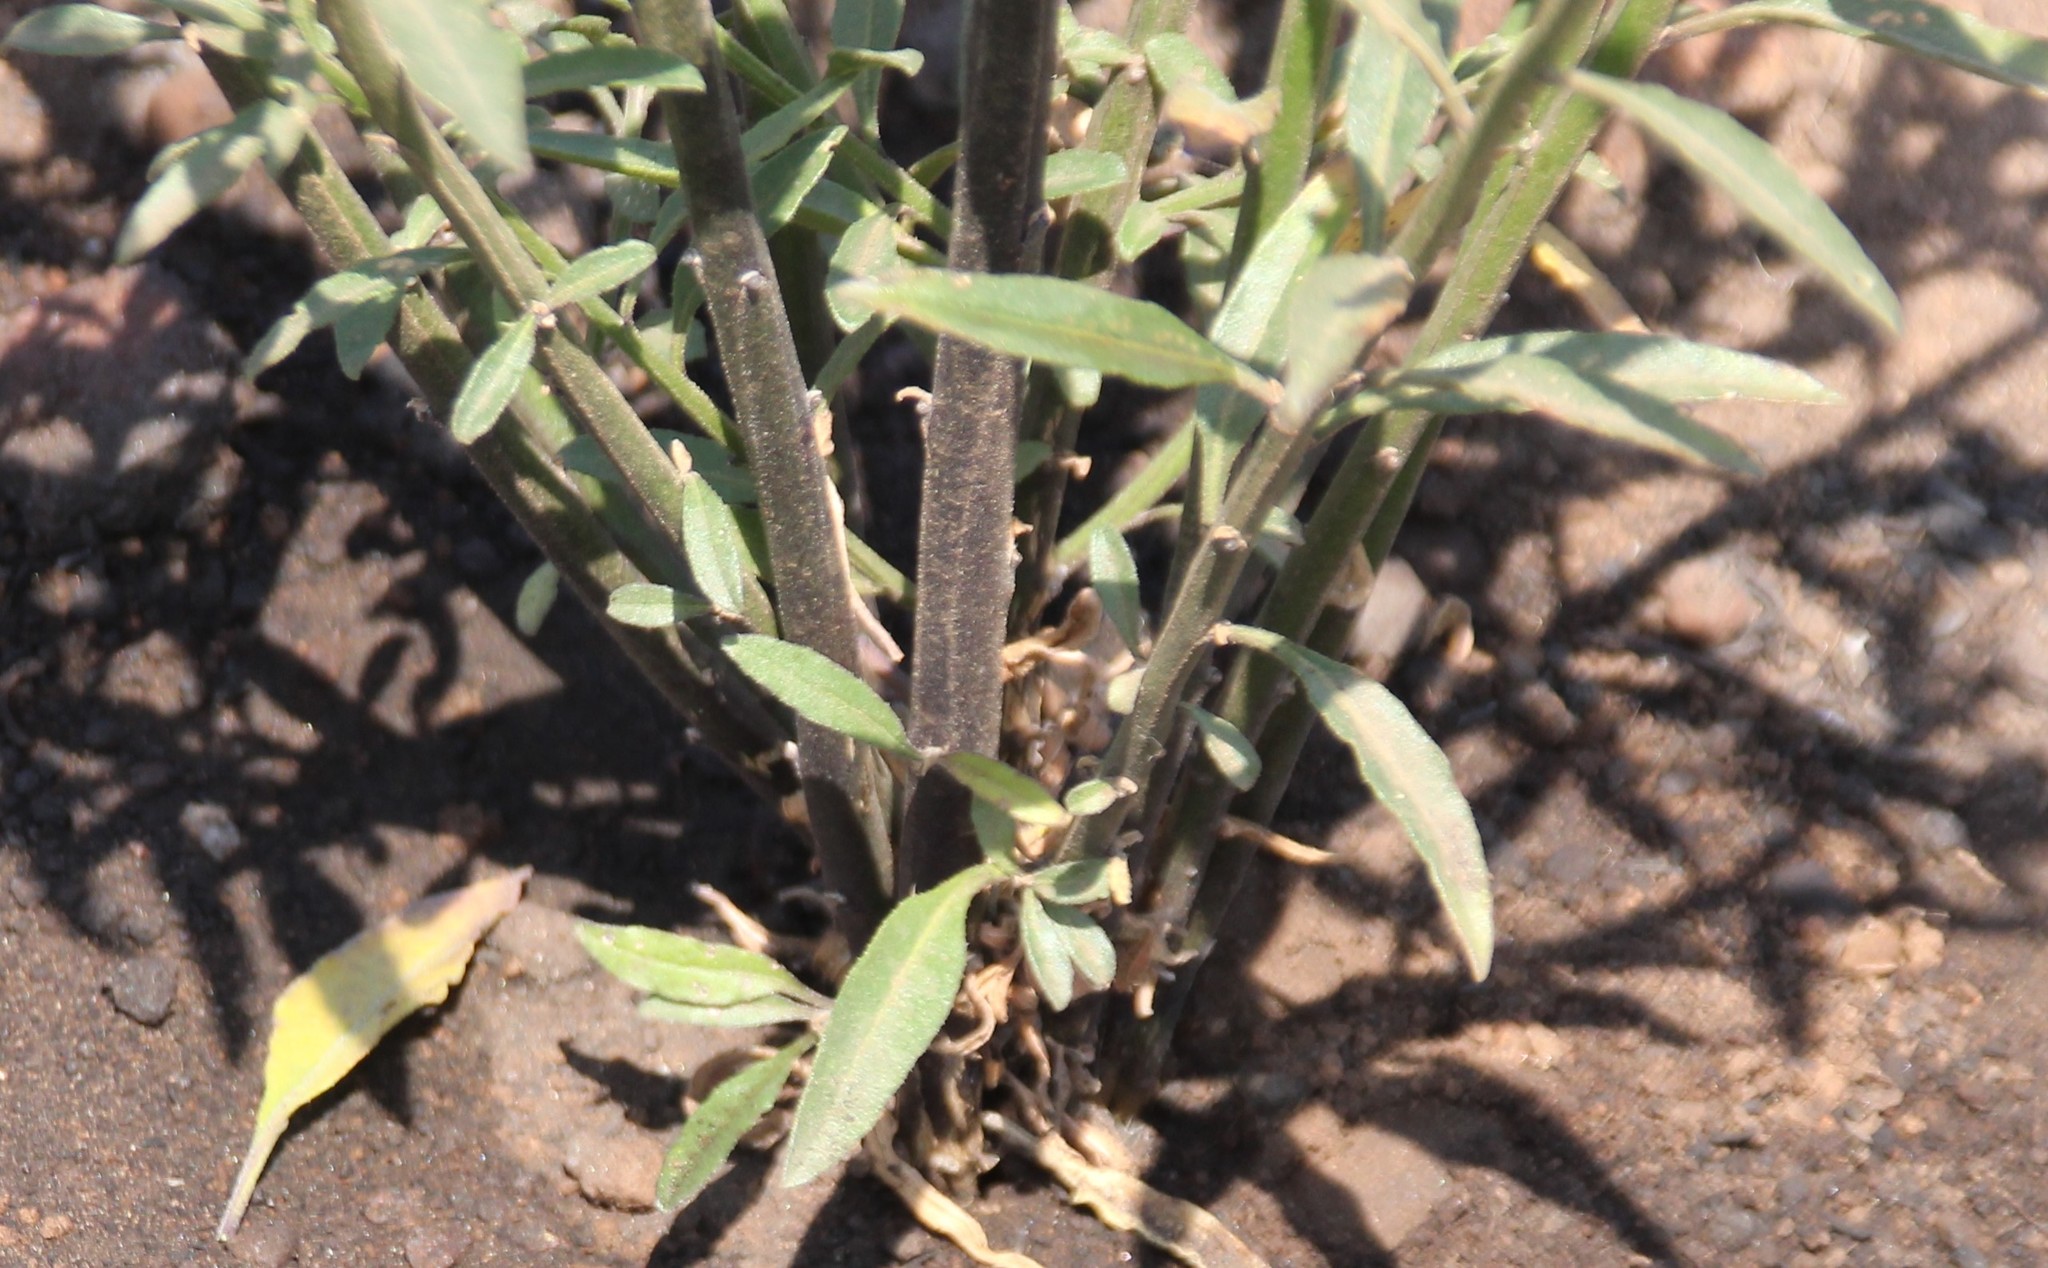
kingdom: Plantae
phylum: Tracheophyta
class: Magnoliopsida
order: Solanales
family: Solanaceae
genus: Solanum
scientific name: Solanum umbelliferum
